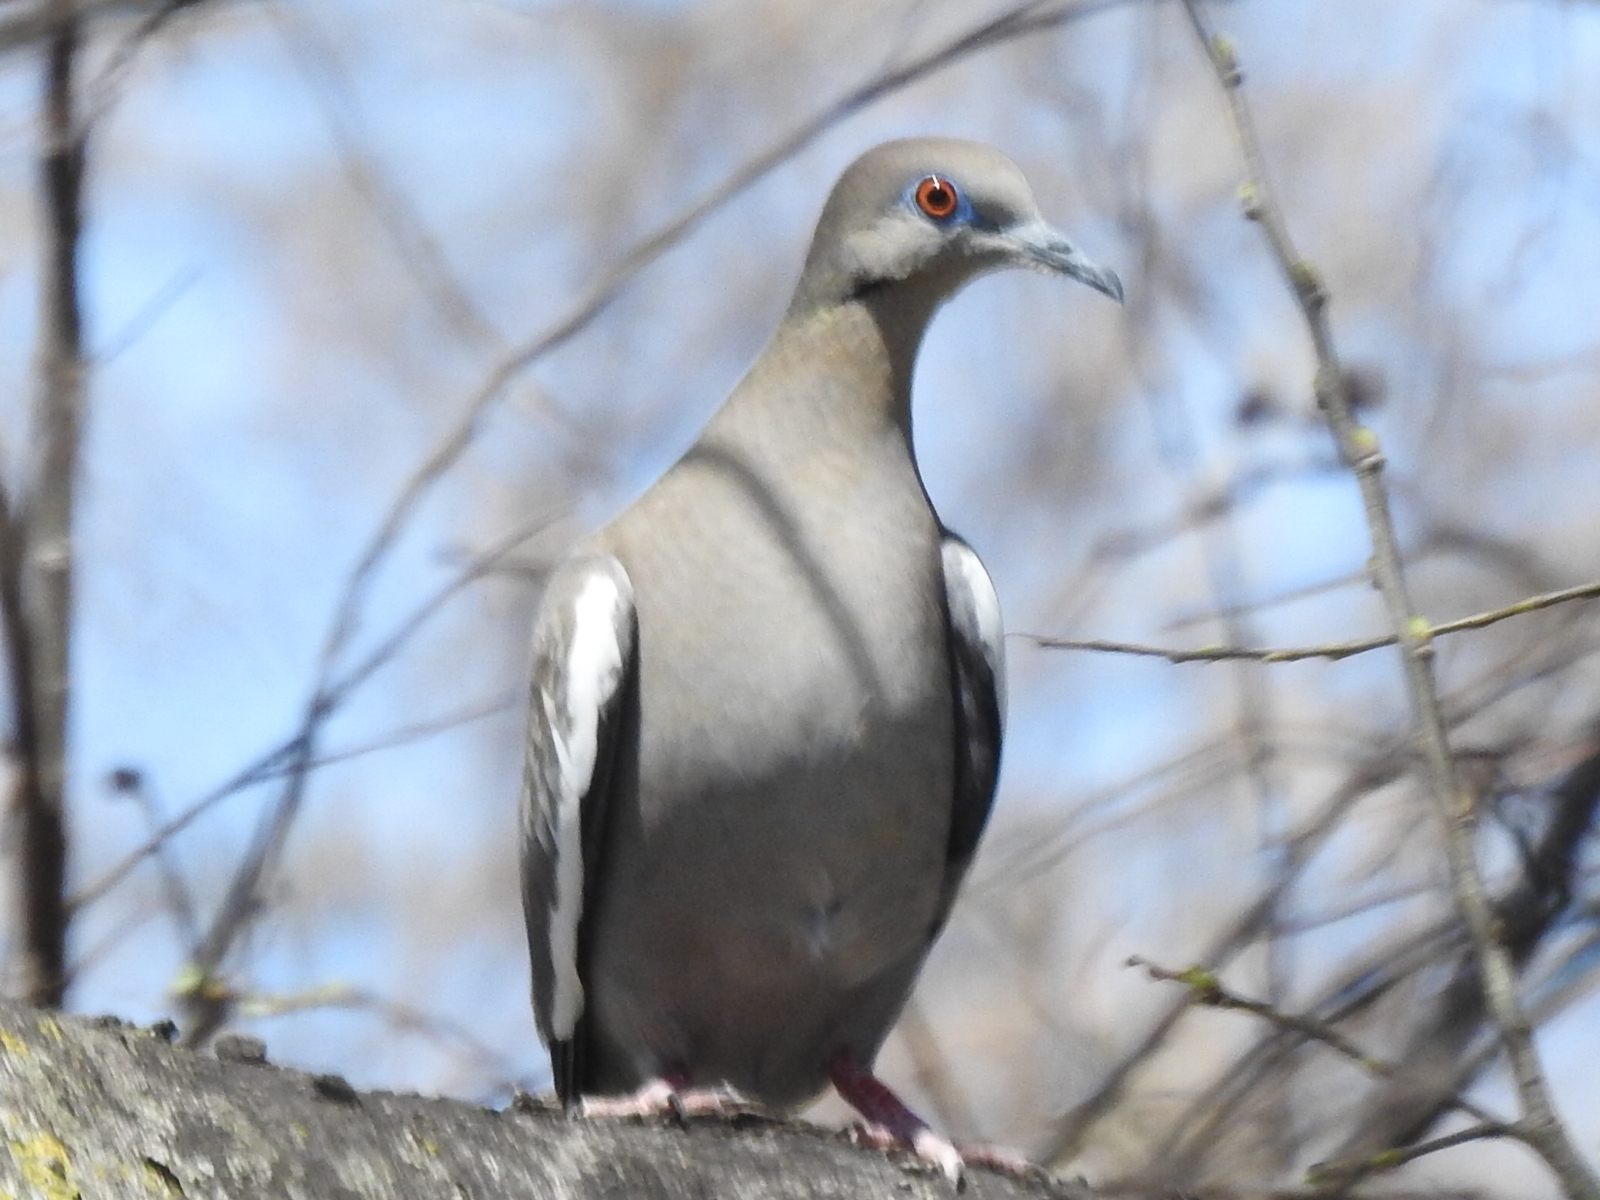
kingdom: Animalia
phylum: Chordata
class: Aves
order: Columbiformes
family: Columbidae
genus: Zenaida
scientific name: Zenaida asiatica
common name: White-winged dove
